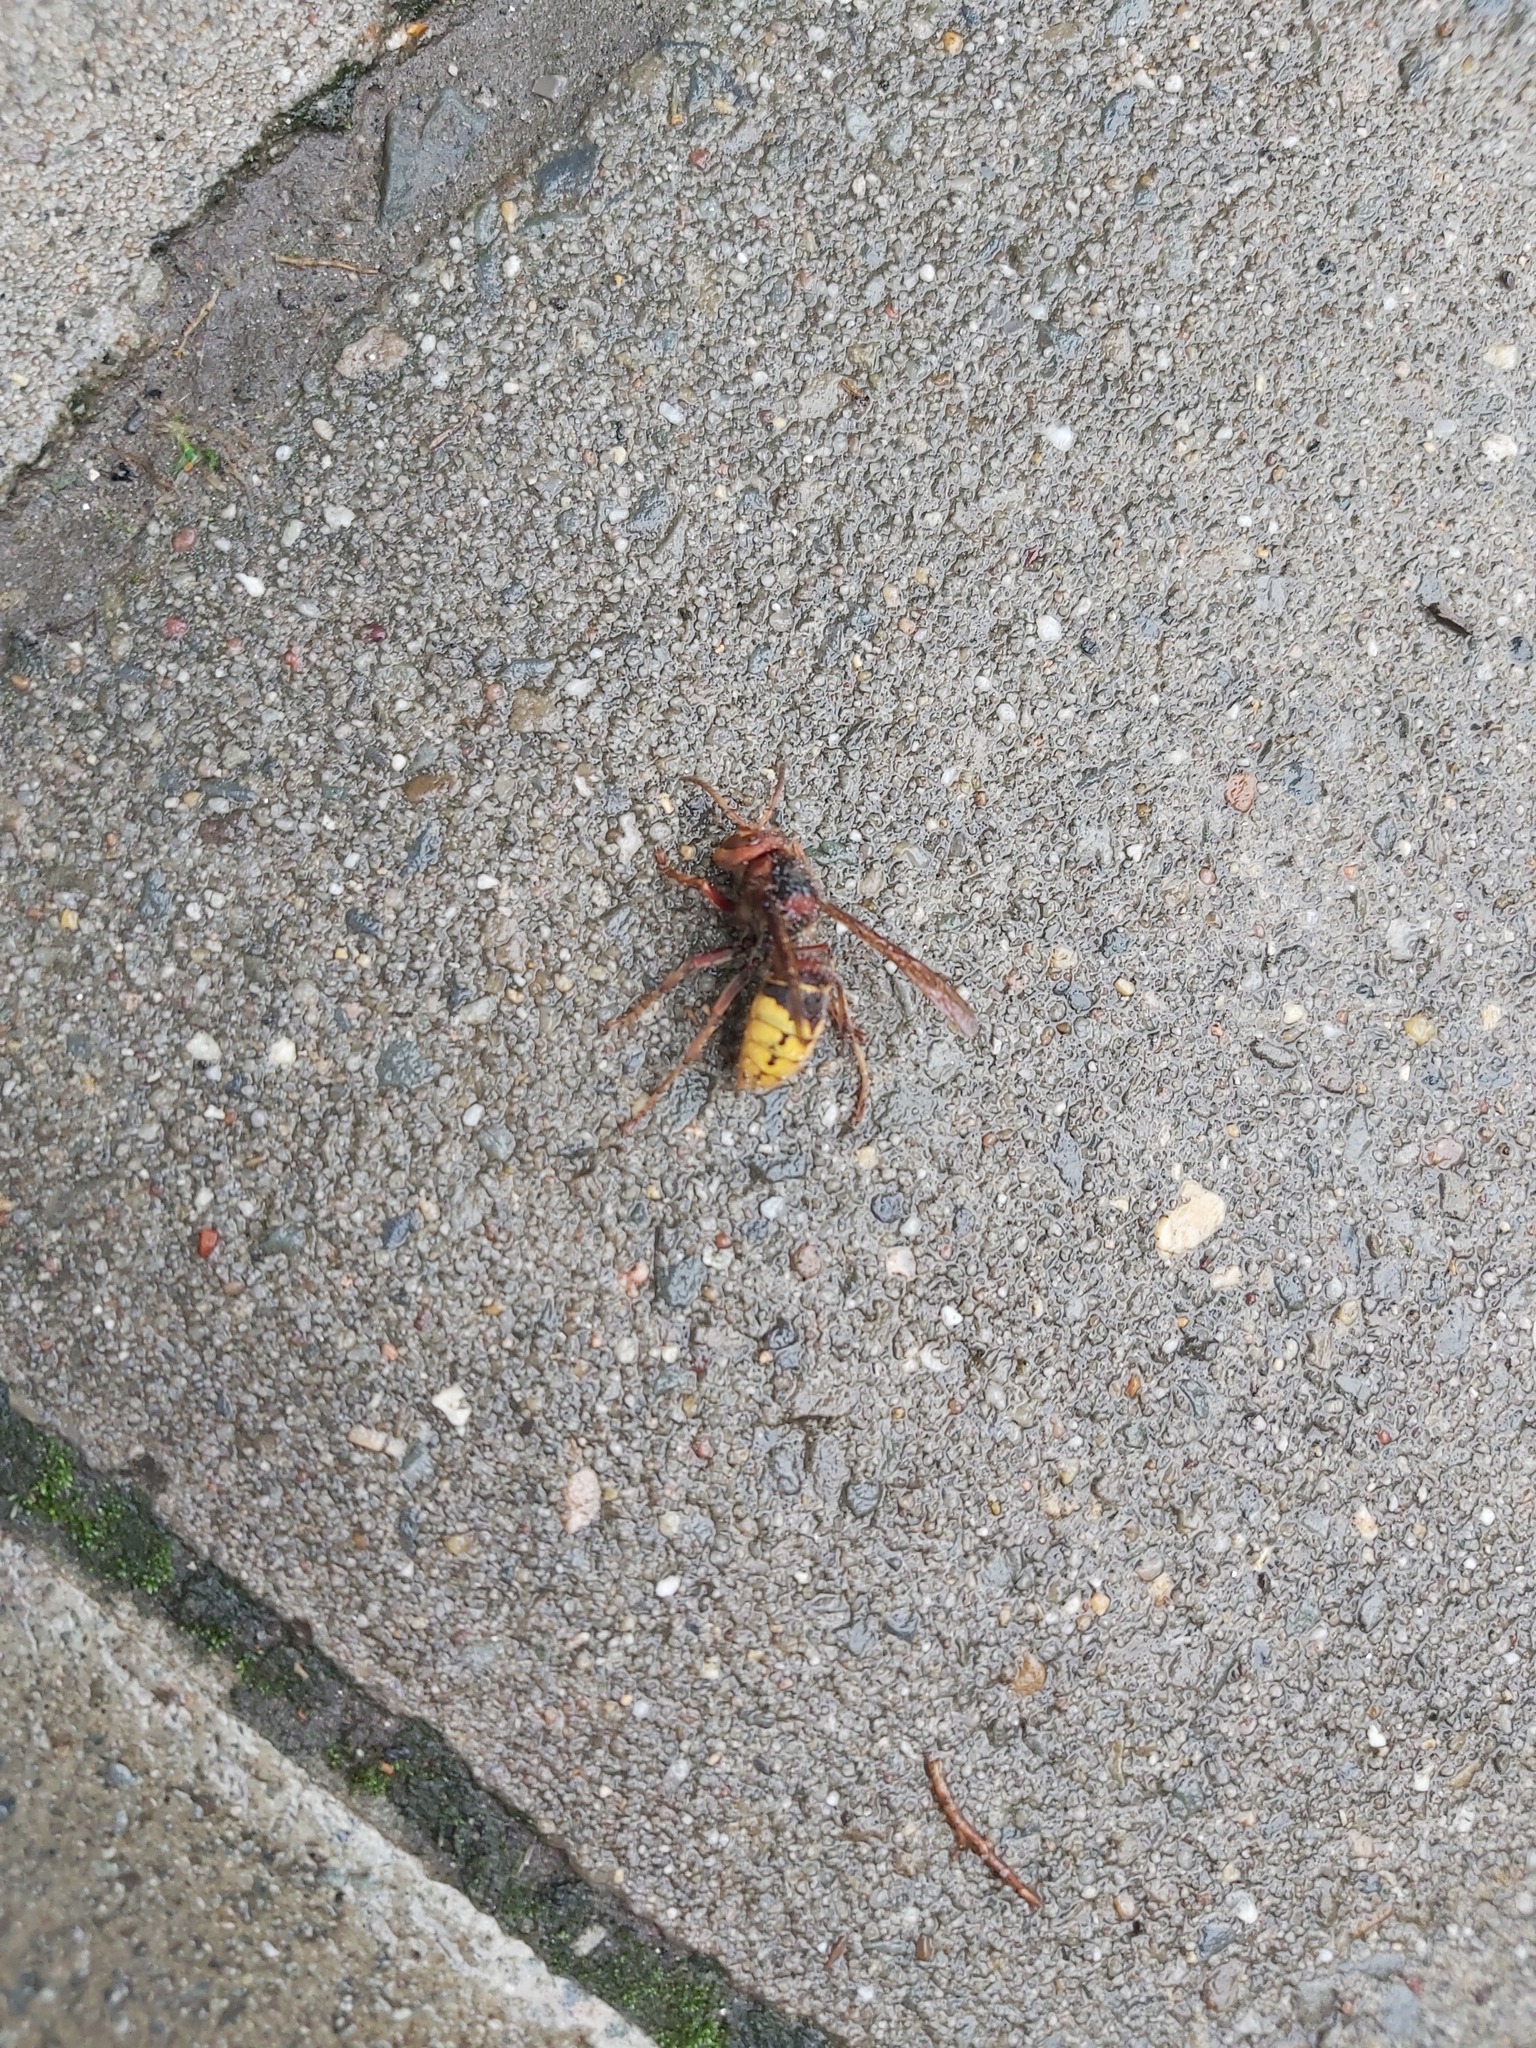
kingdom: Animalia
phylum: Arthropoda
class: Insecta
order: Hymenoptera
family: Vespidae
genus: Vespa
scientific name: Vespa crabro
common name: Hornet
